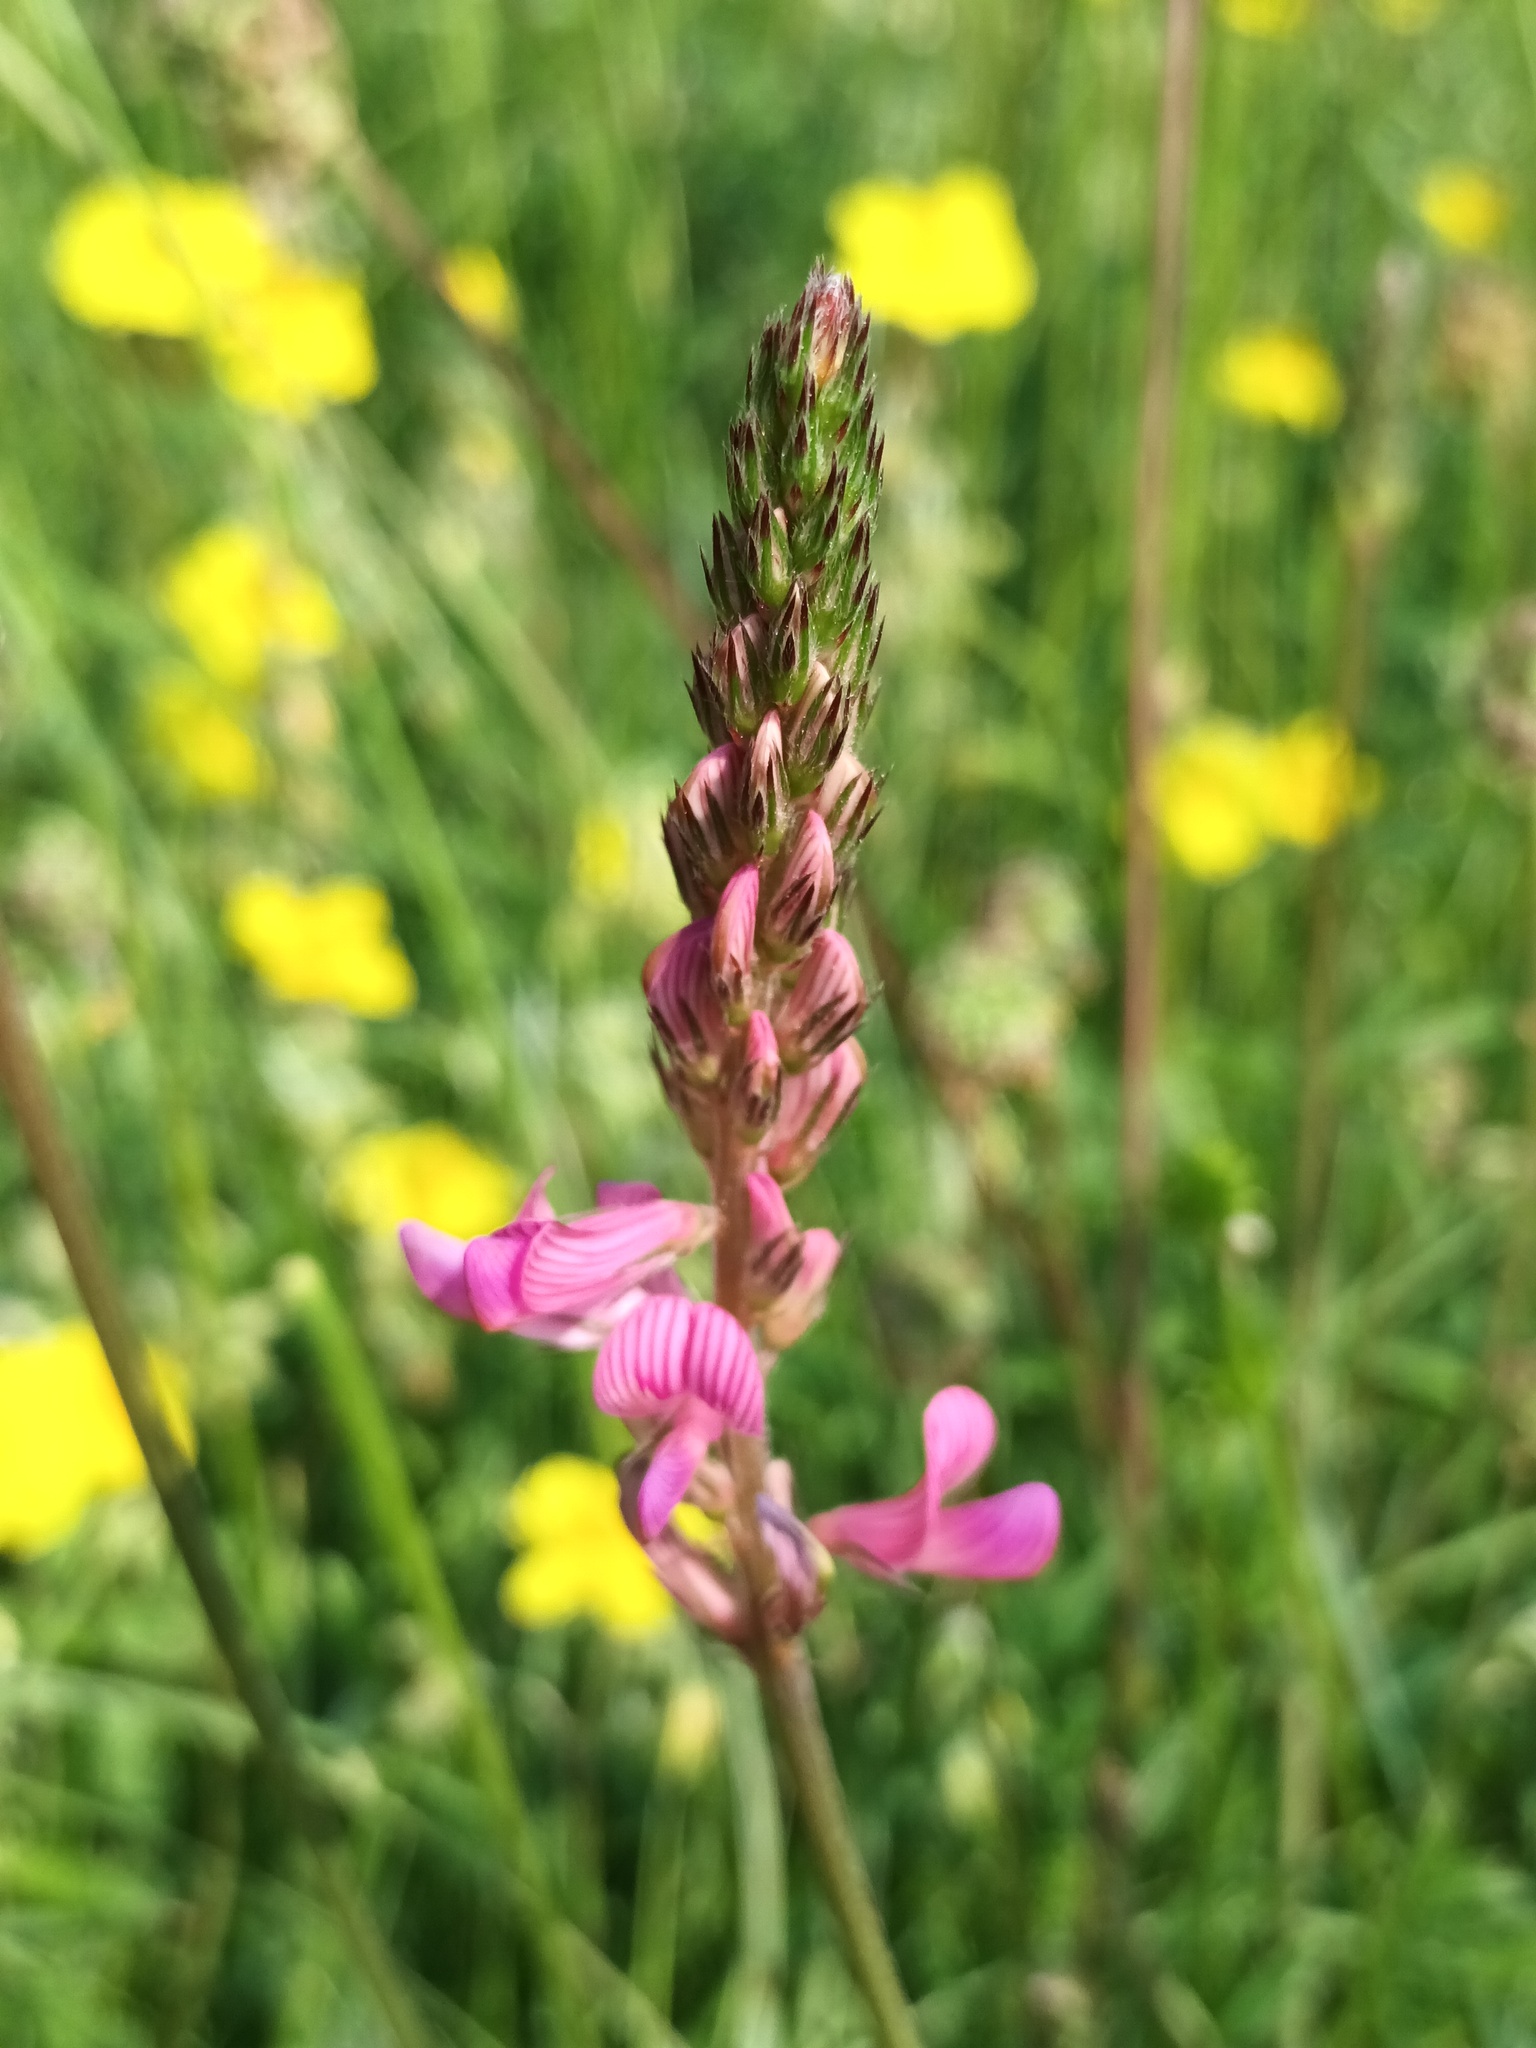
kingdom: Plantae
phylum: Tracheophyta
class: Magnoliopsida
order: Fabales
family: Fabaceae
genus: Onobrychis
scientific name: Onobrychis viciifolia
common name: Sainfoin
